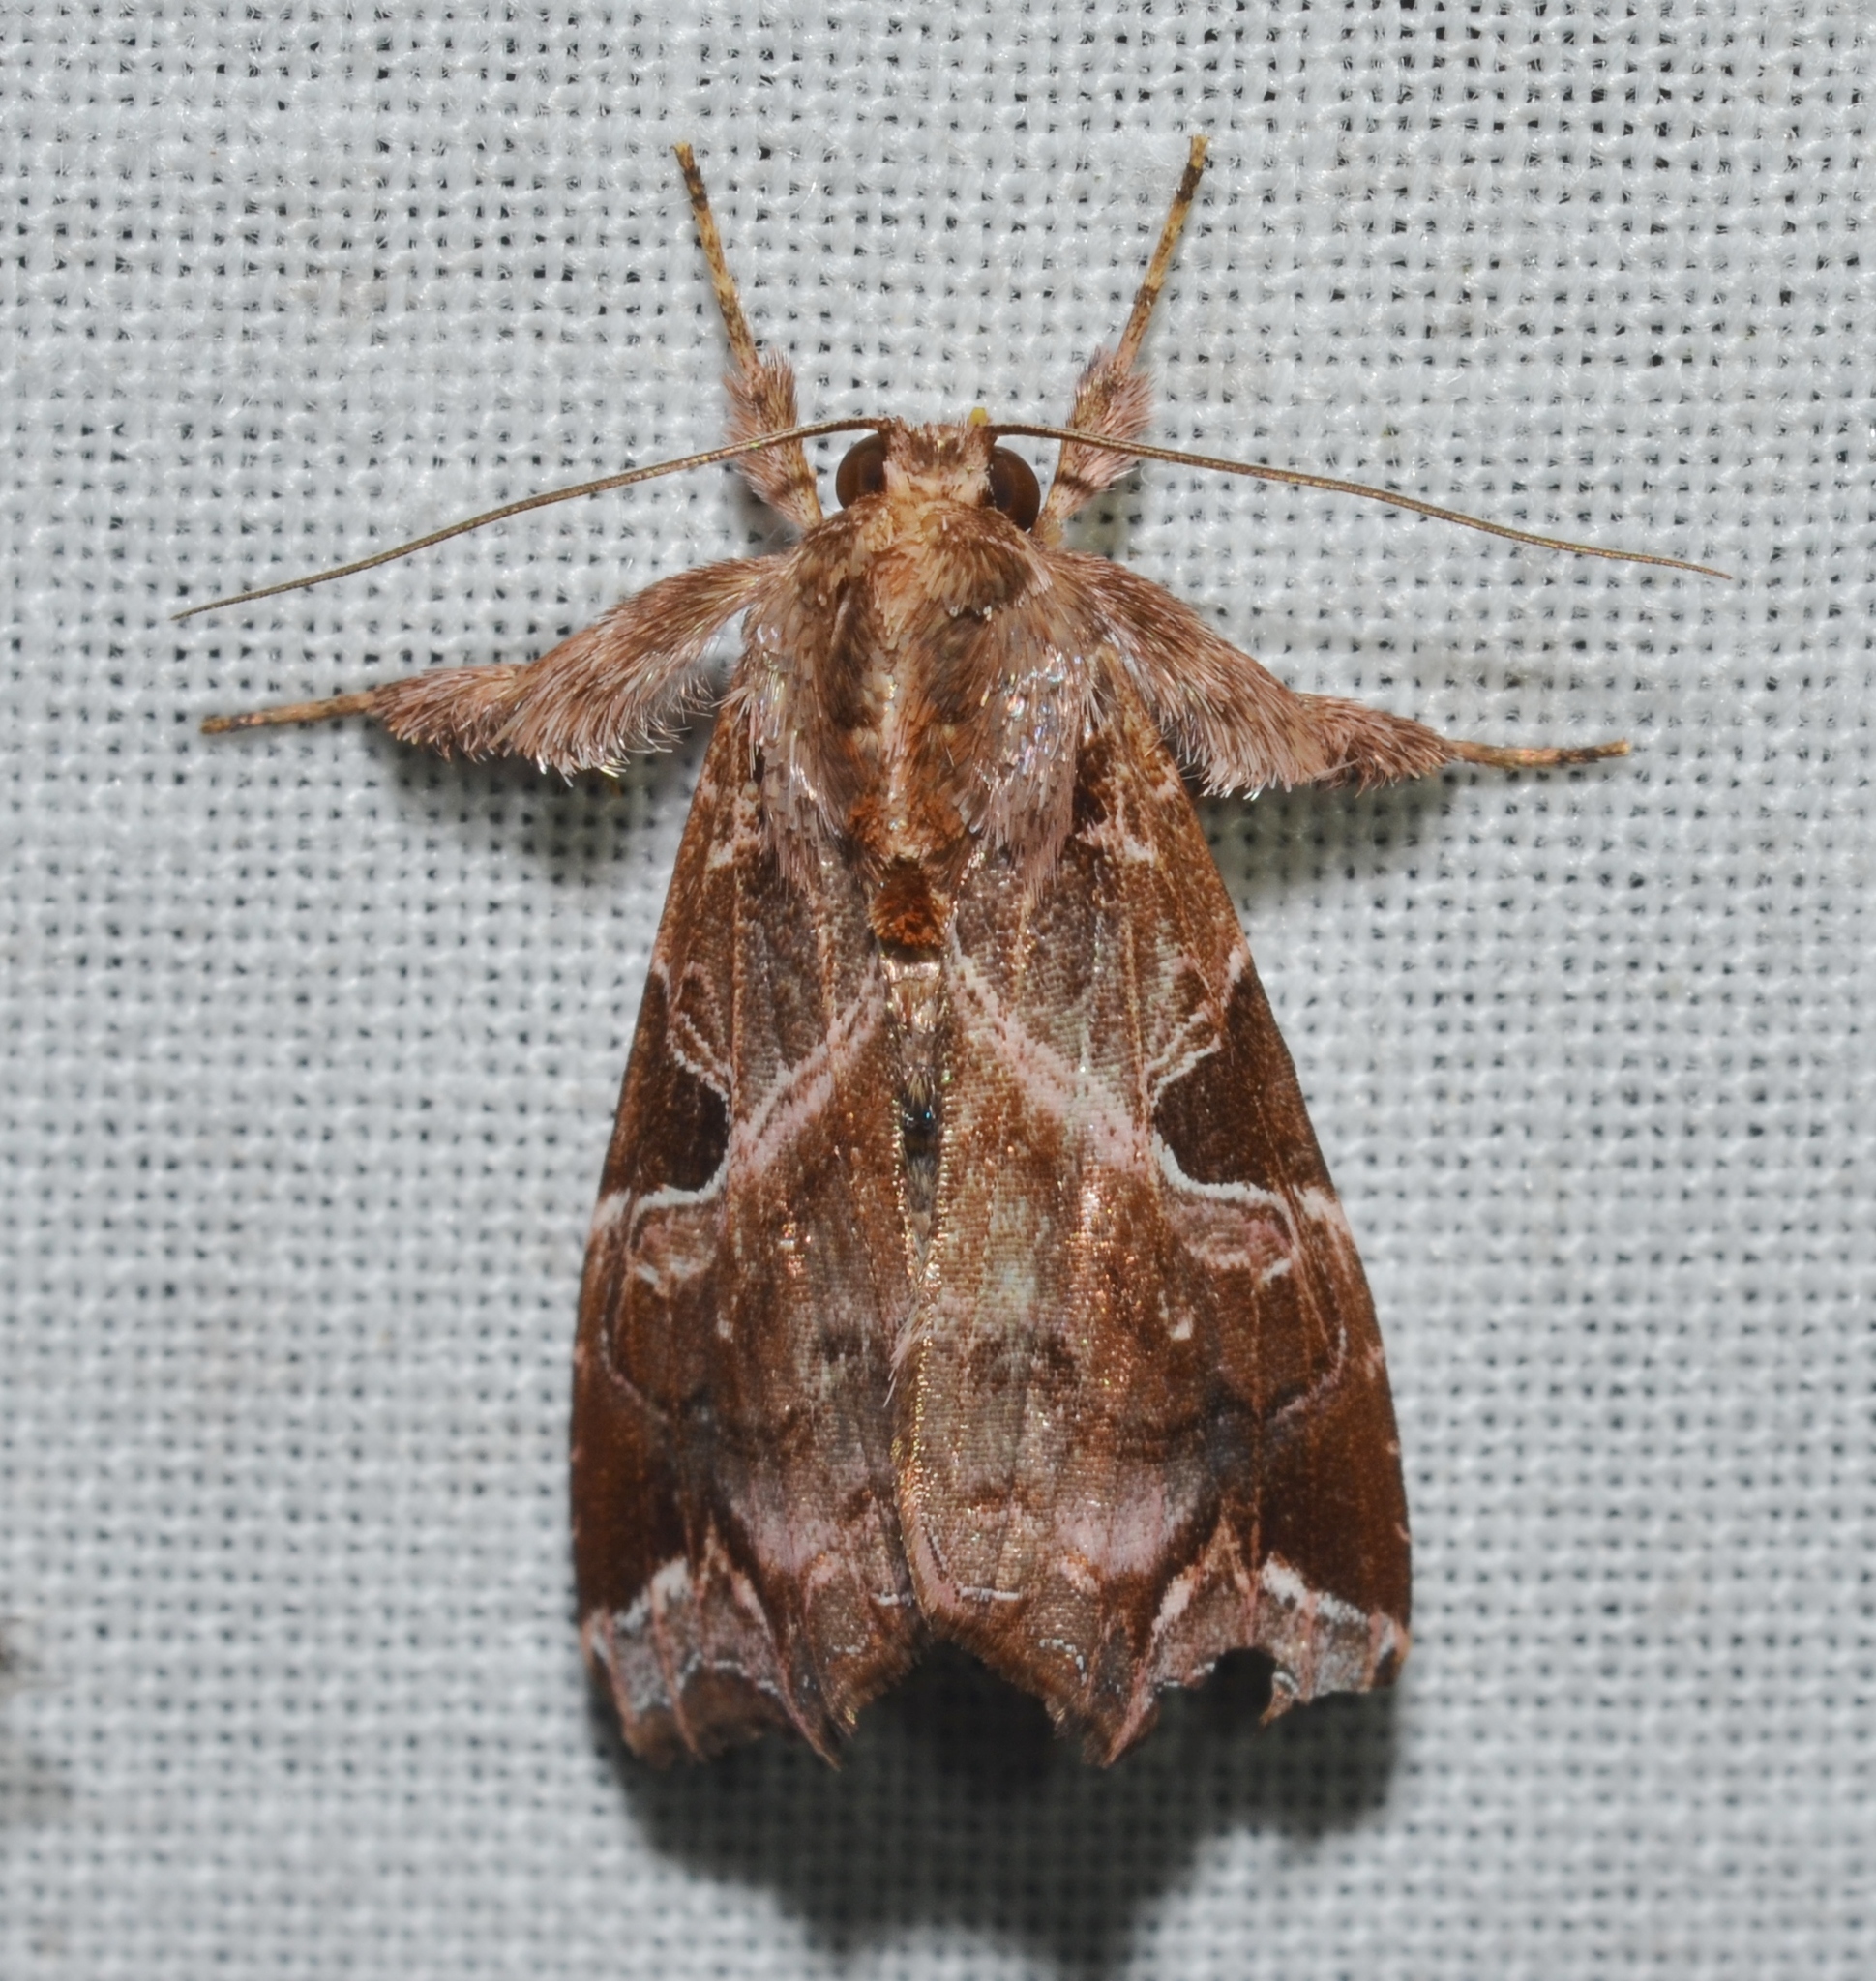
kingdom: Animalia
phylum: Arthropoda
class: Insecta
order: Lepidoptera
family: Noctuidae
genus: Callopistria
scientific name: Callopistria floridensis
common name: Florida fern moth
